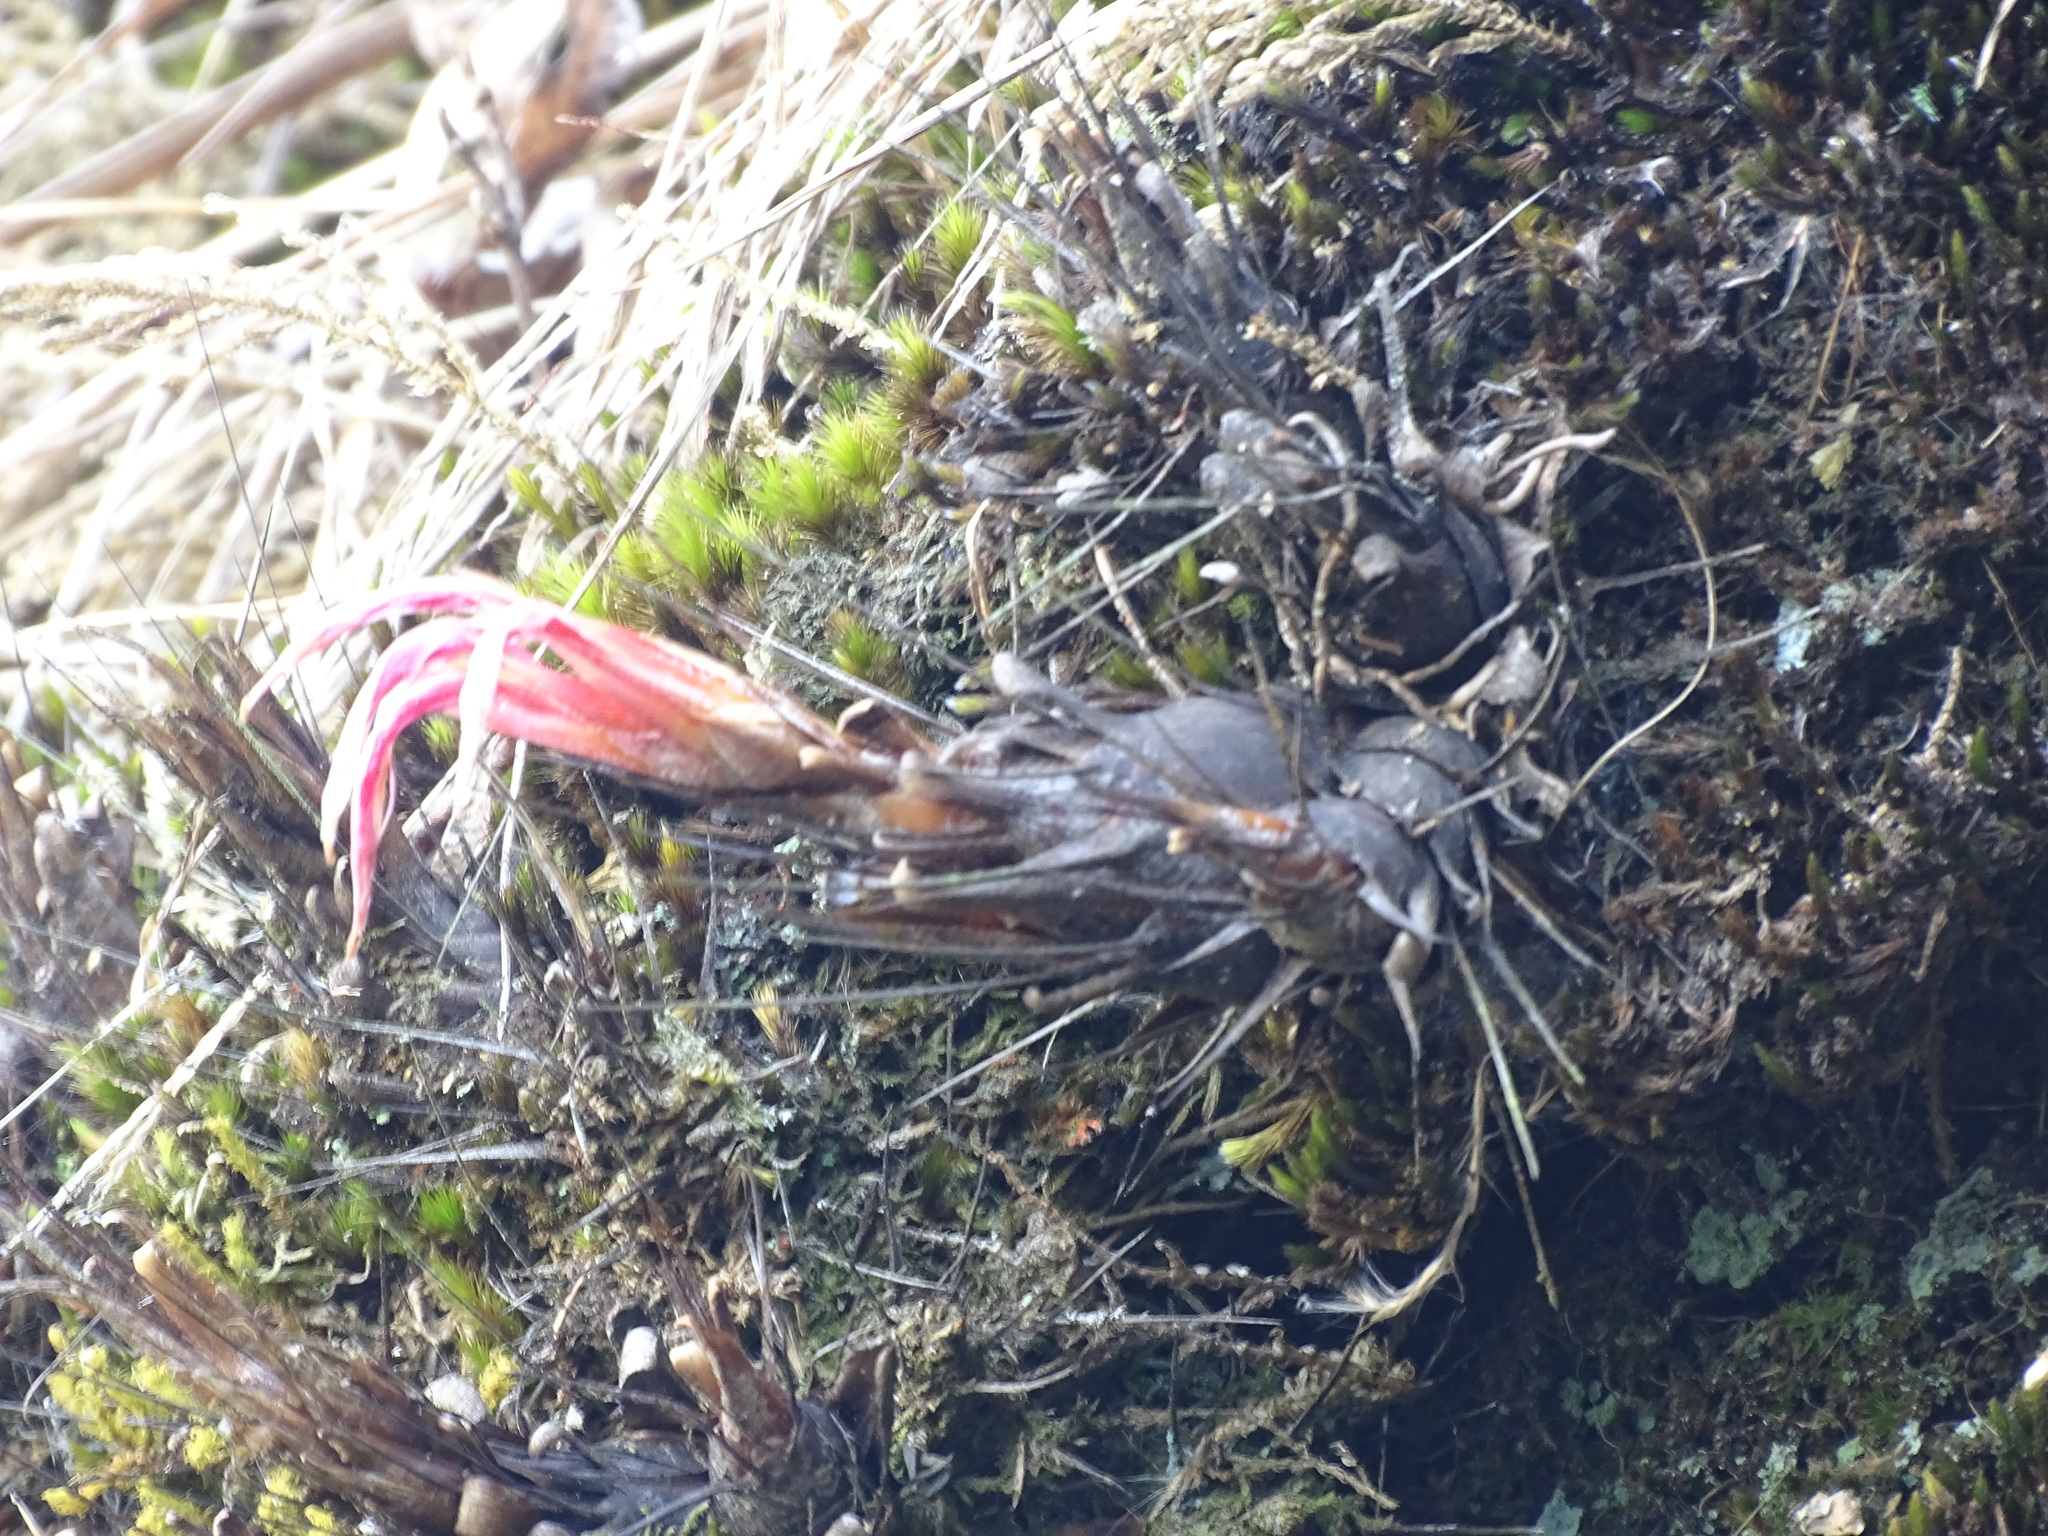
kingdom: Plantae
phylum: Tracheophyta
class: Liliopsida
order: Poales
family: Bromeliaceae
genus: Pitcairnia
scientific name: Pitcairnia heterophylla
